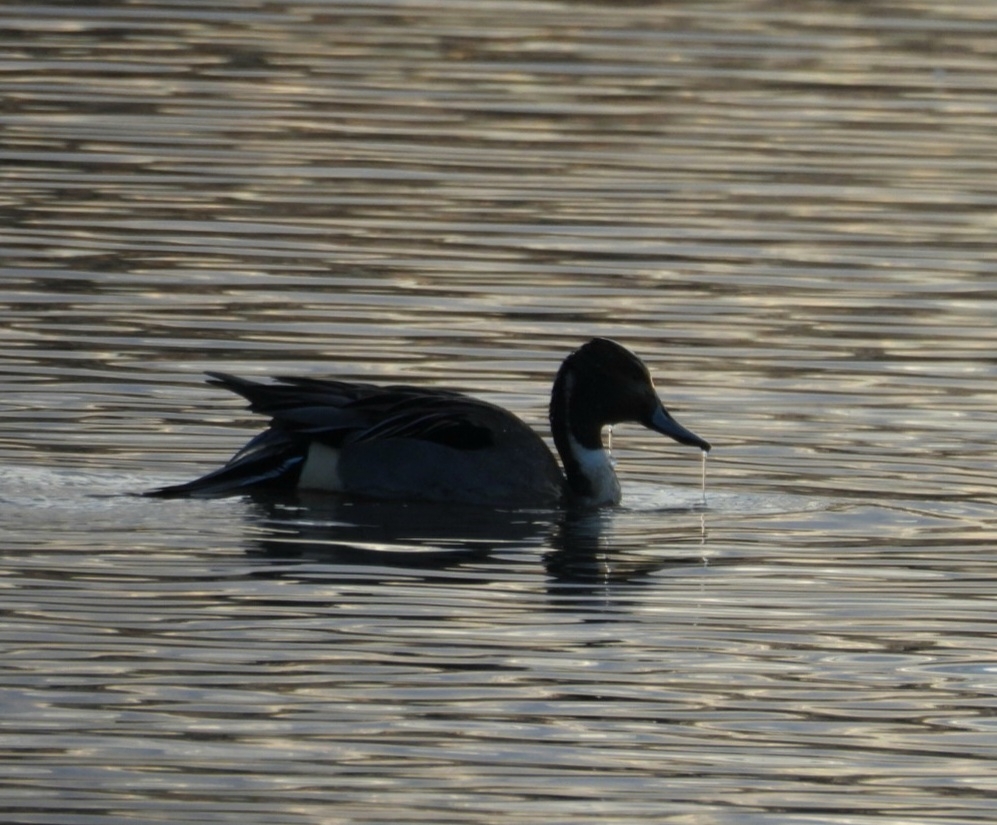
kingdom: Animalia
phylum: Chordata
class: Aves
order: Anseriformes
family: Anatidae
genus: Anas
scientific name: Anas acuta
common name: Northern pintail
